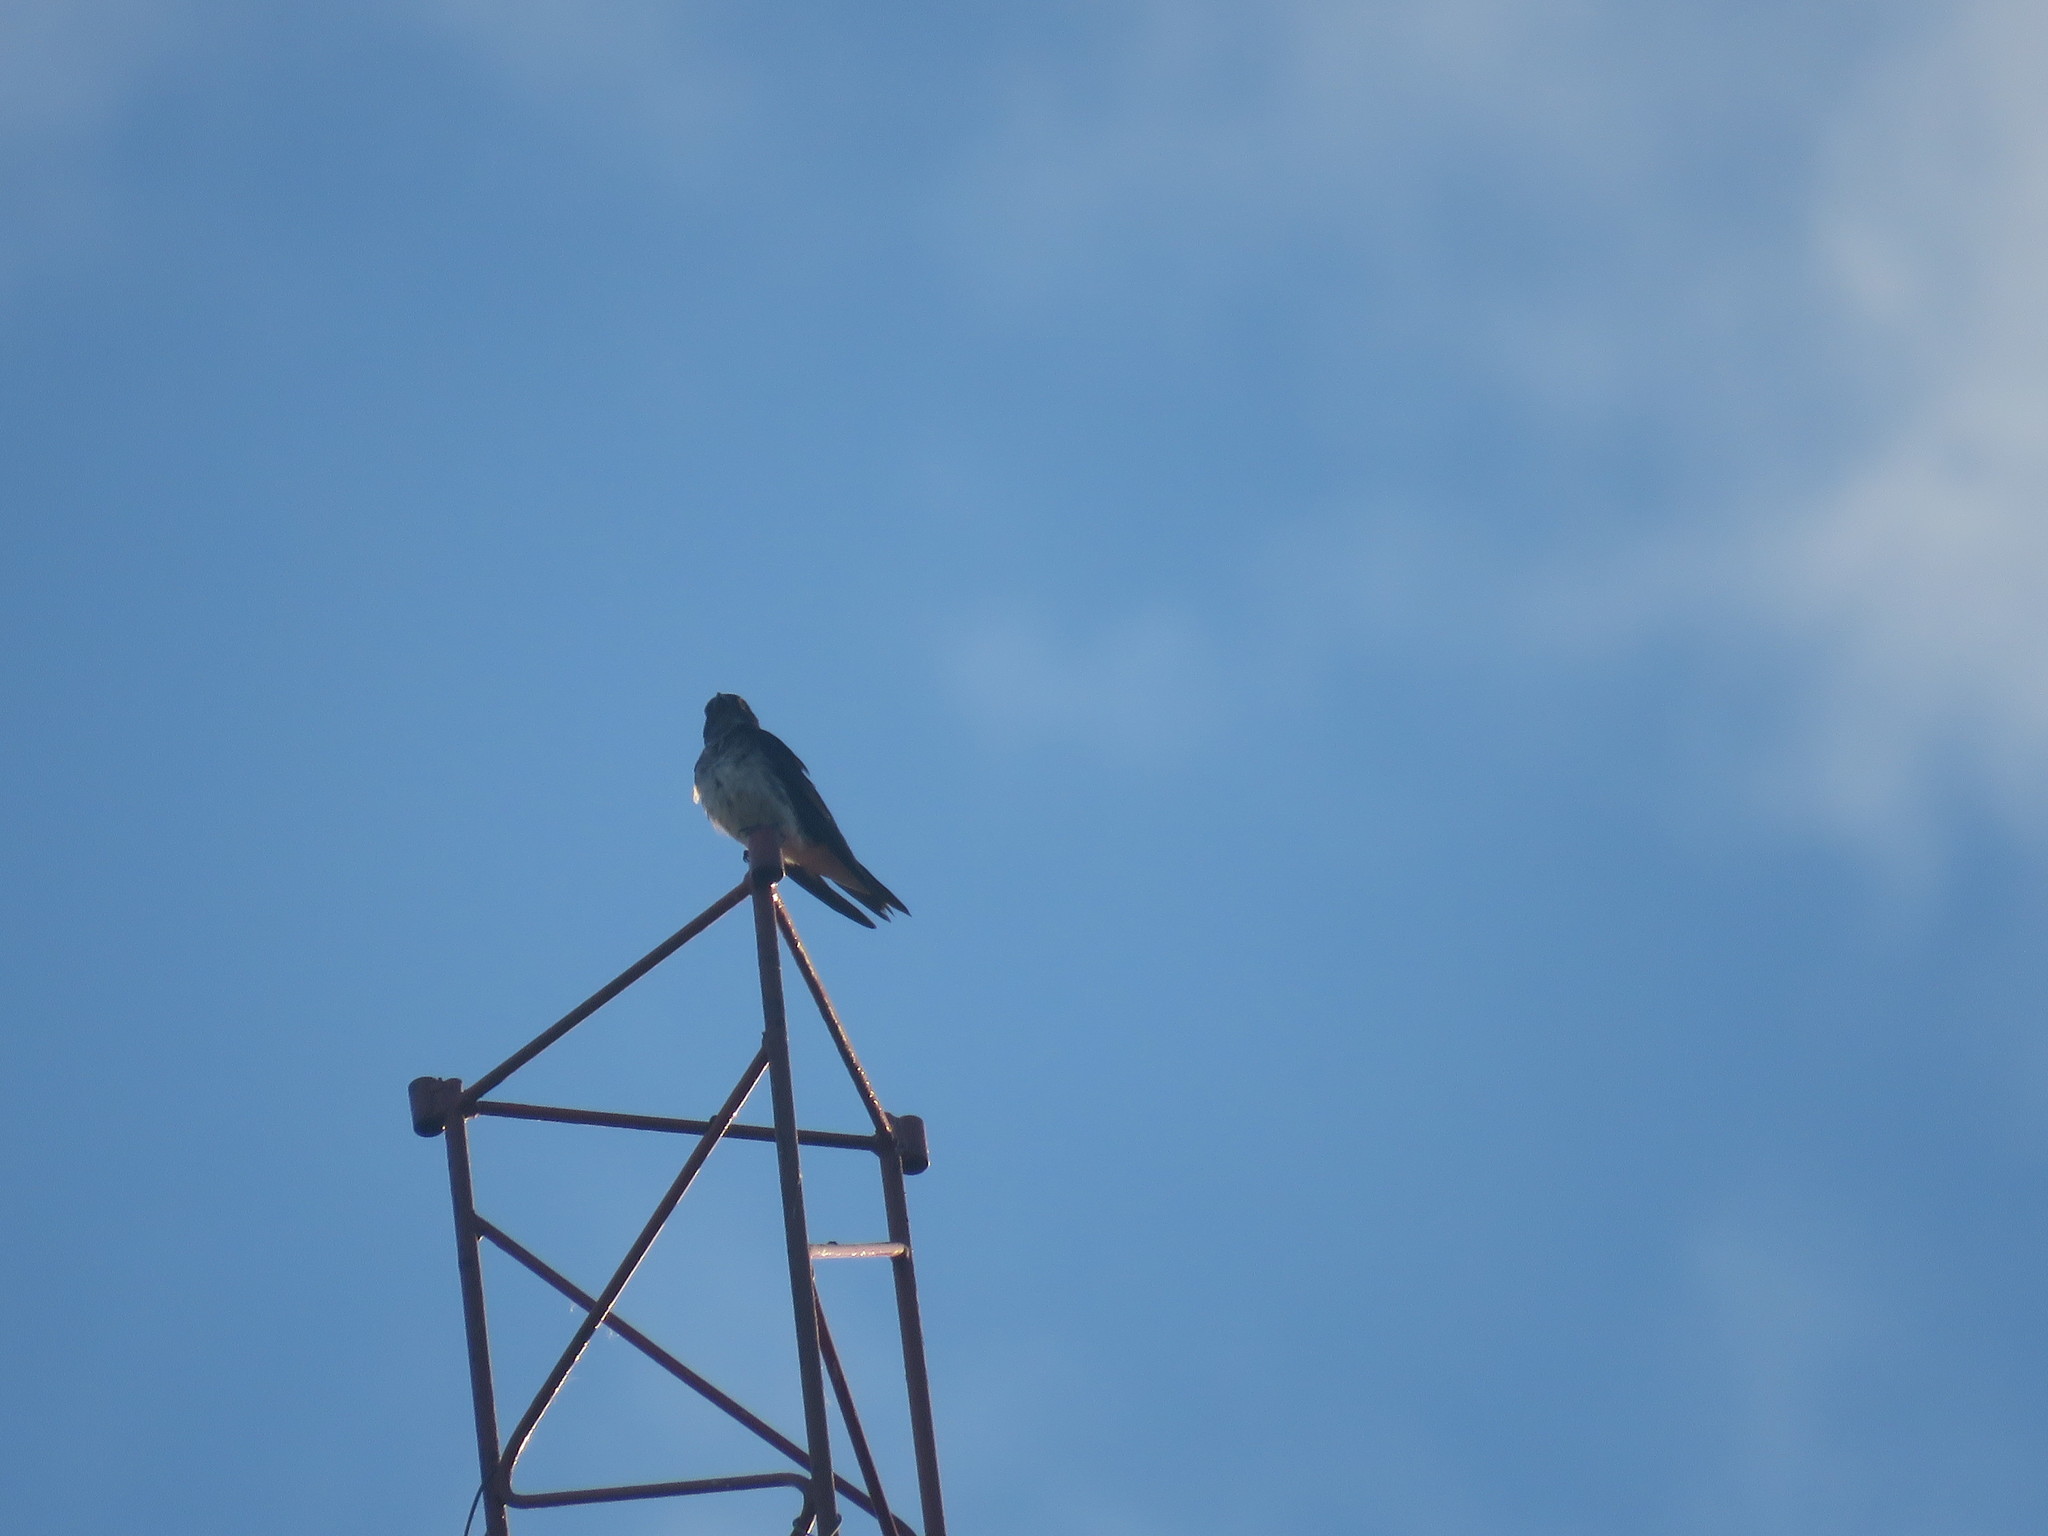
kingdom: Animalia
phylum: Chordata
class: Aves
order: Passeriformes
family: Hirundinidae
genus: Progne
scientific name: Progne chalybea
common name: Grey-breasted martin
